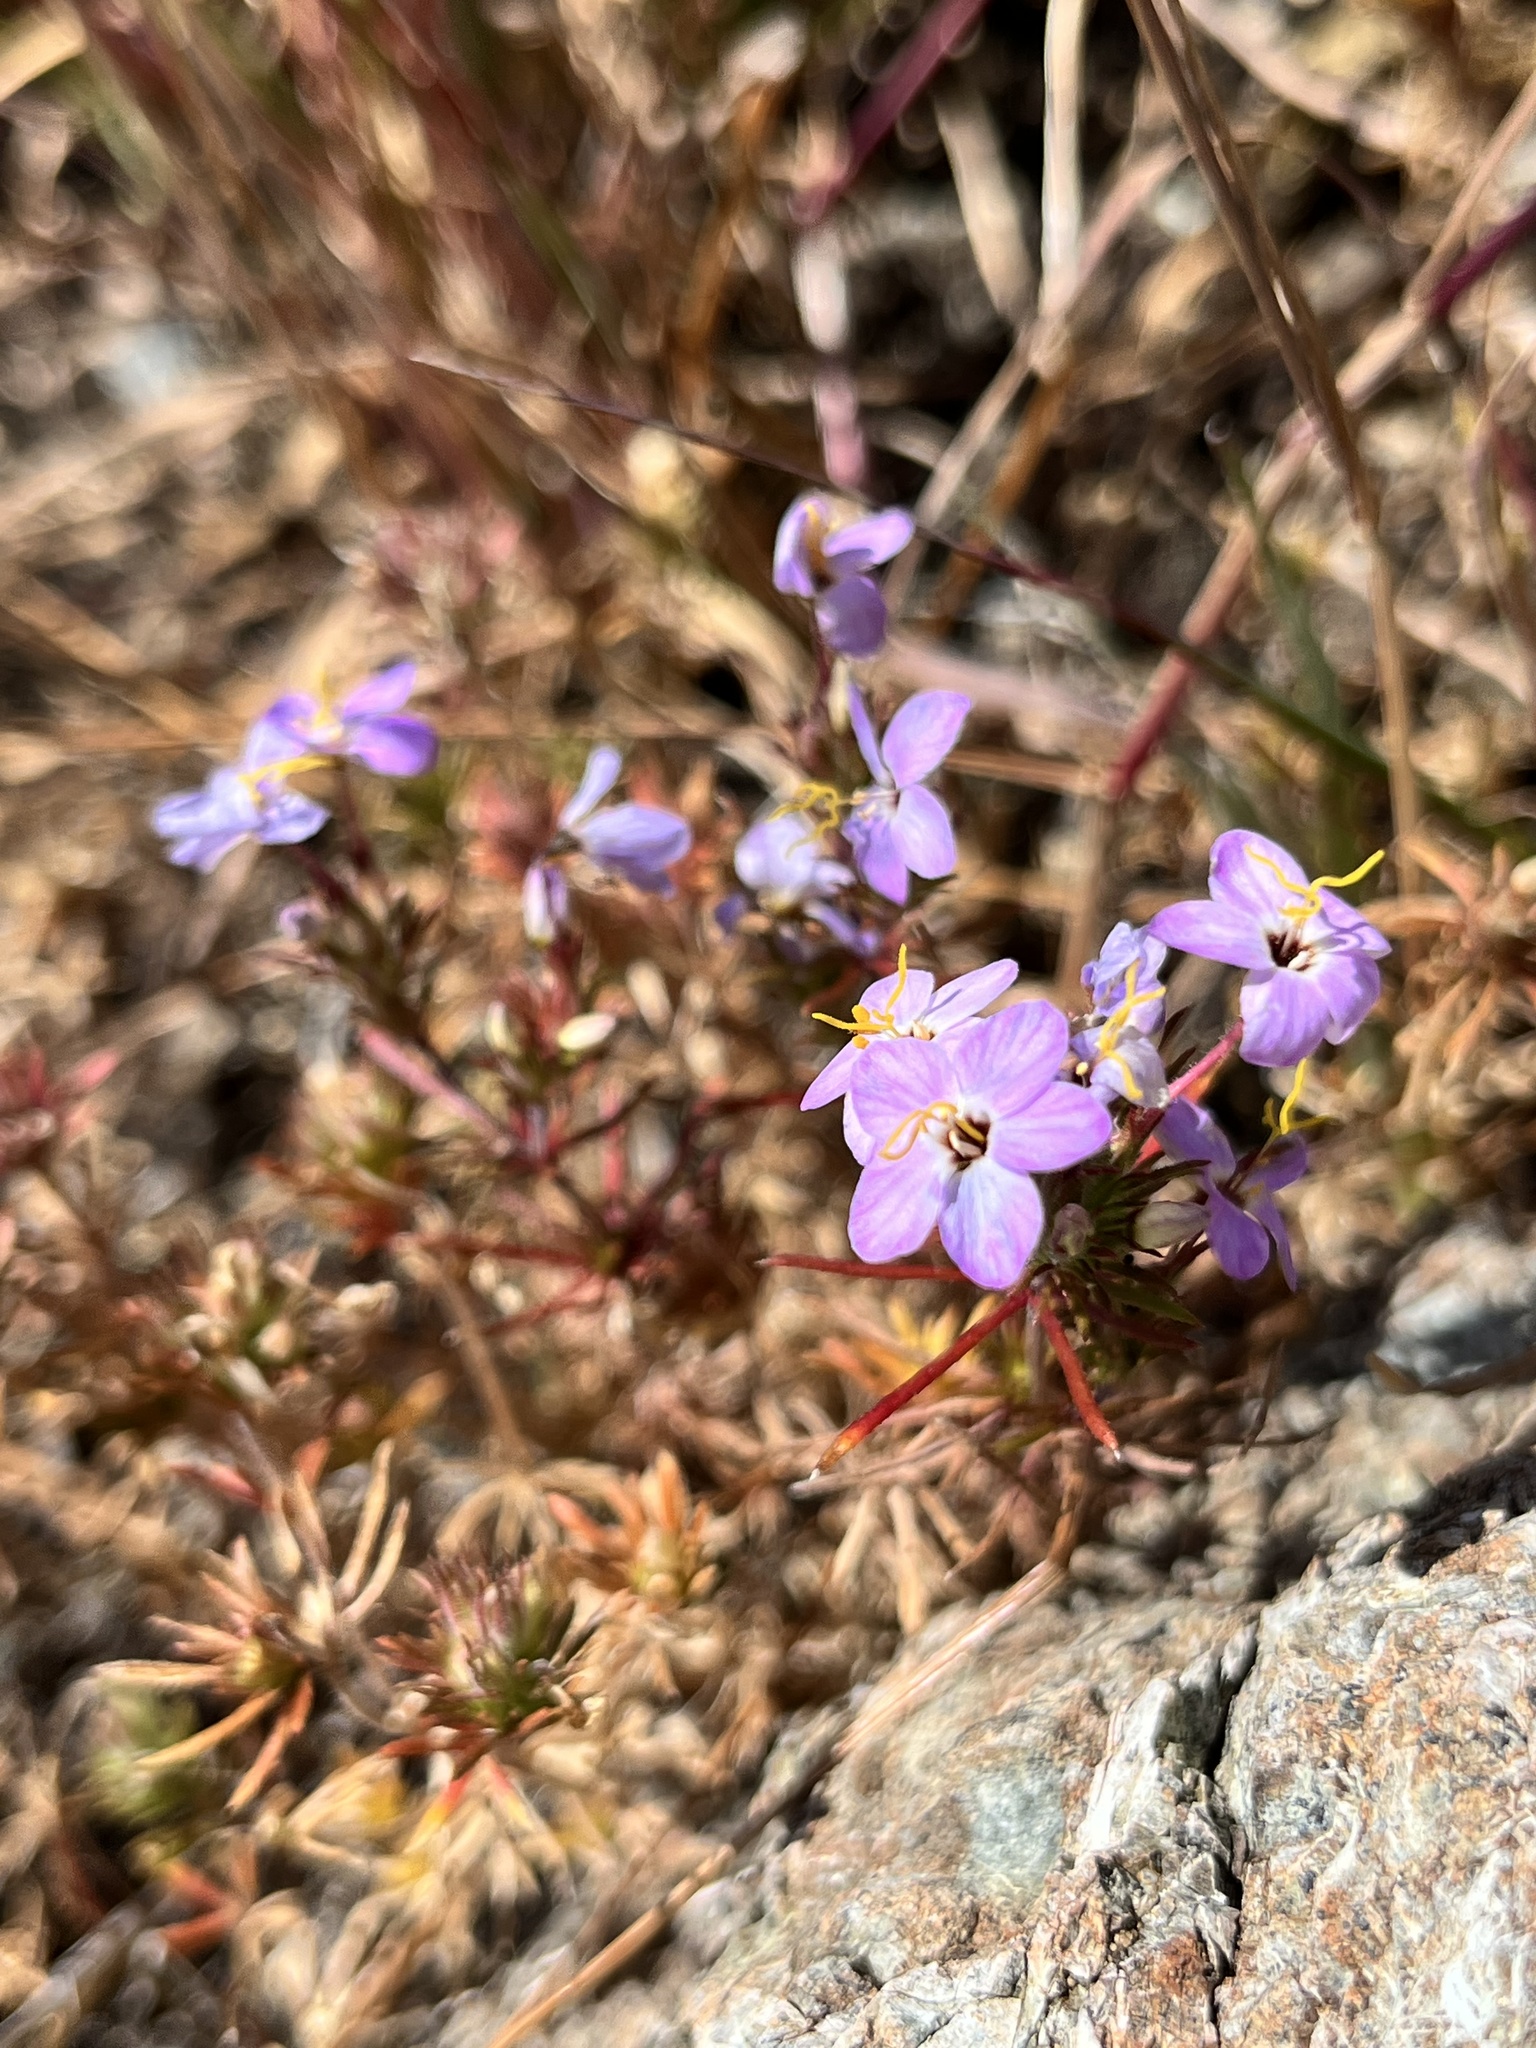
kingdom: Plantae
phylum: Tracheophyta
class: Magnoliopsida
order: Ericales
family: Polemoniaceae
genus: Leptosiphon
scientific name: Leptosiphon parviflorus
